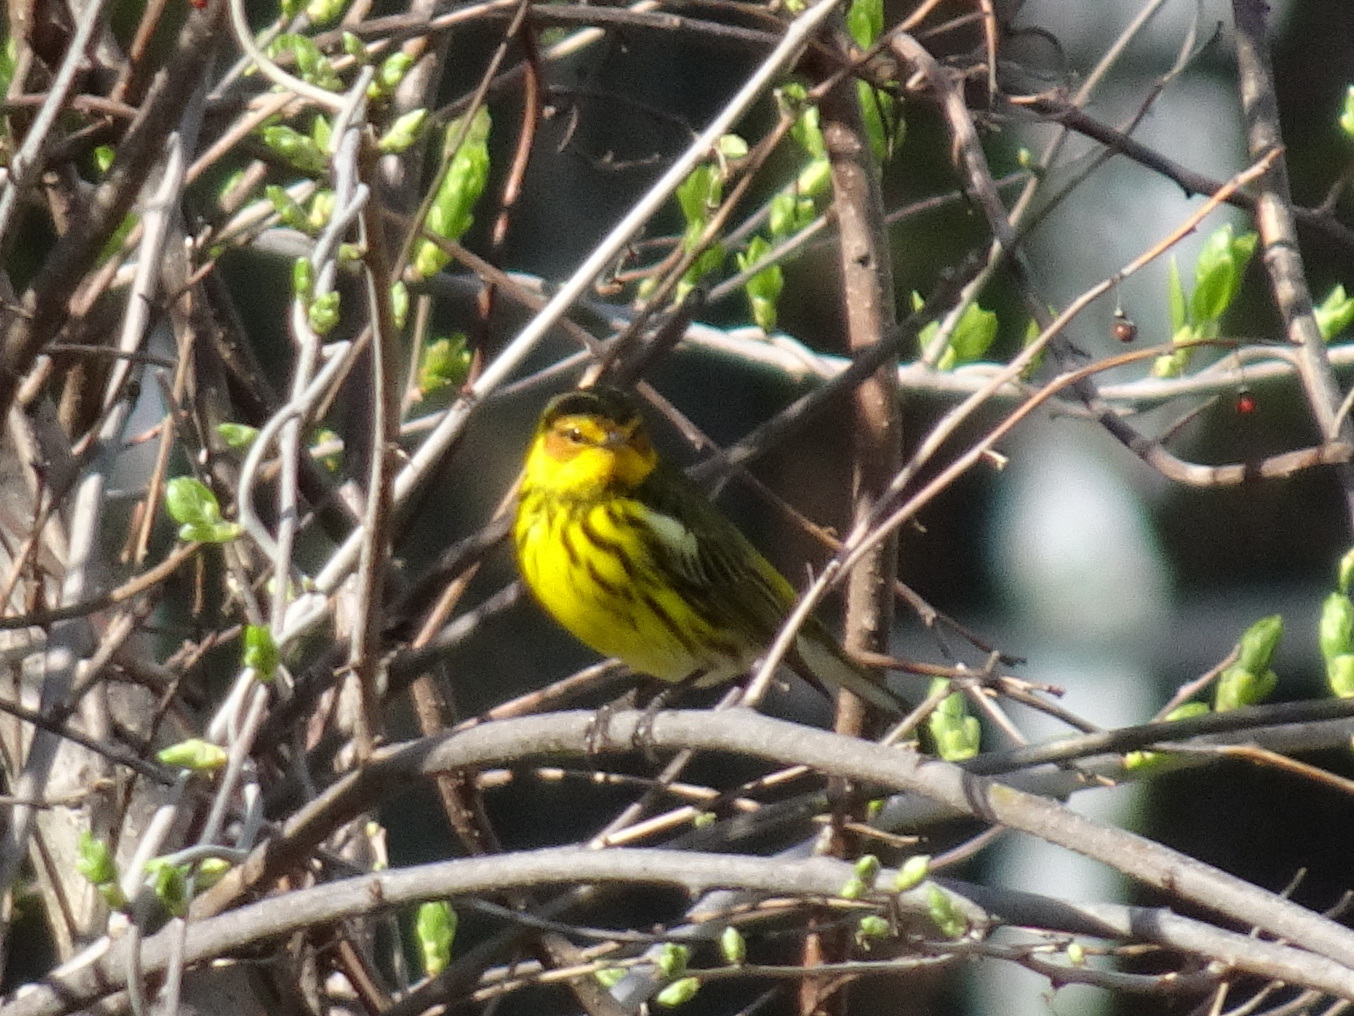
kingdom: Animalia
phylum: Chordata
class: Aves
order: Passeriformes
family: Parulidae
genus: Setophaga
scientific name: Setophaga tigrina
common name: Cape may warbler
